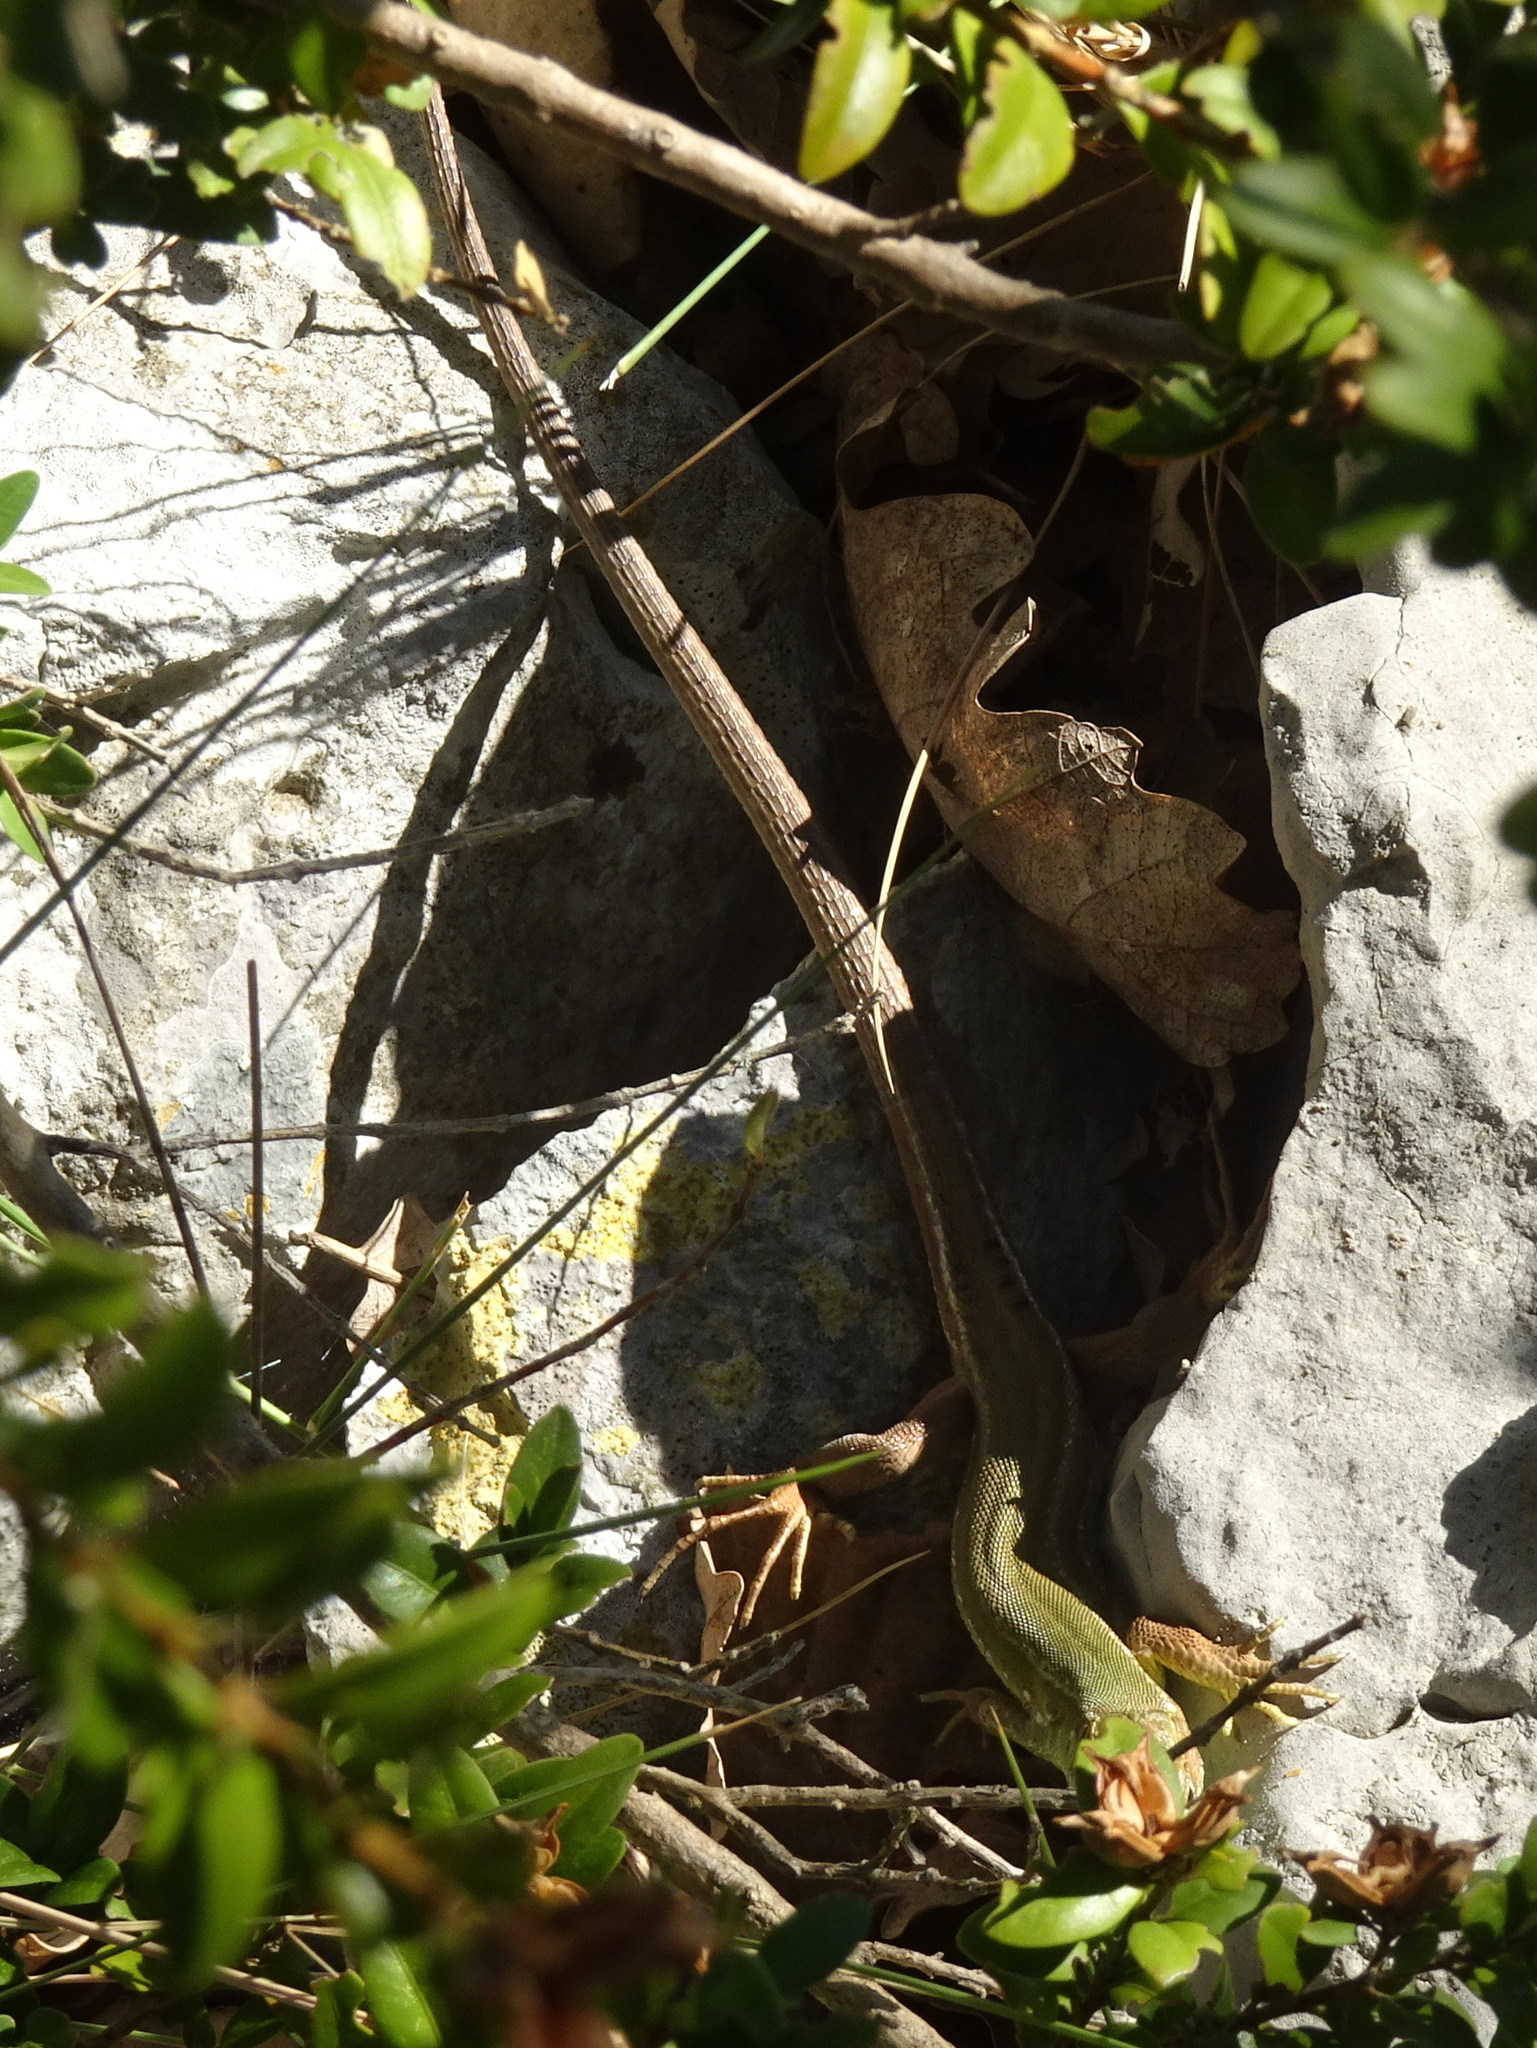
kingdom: Animalia
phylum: Chordata
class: Squamata
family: Lacertidae
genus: Lacerta
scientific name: Lacerta bilineata
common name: Western green lizard
